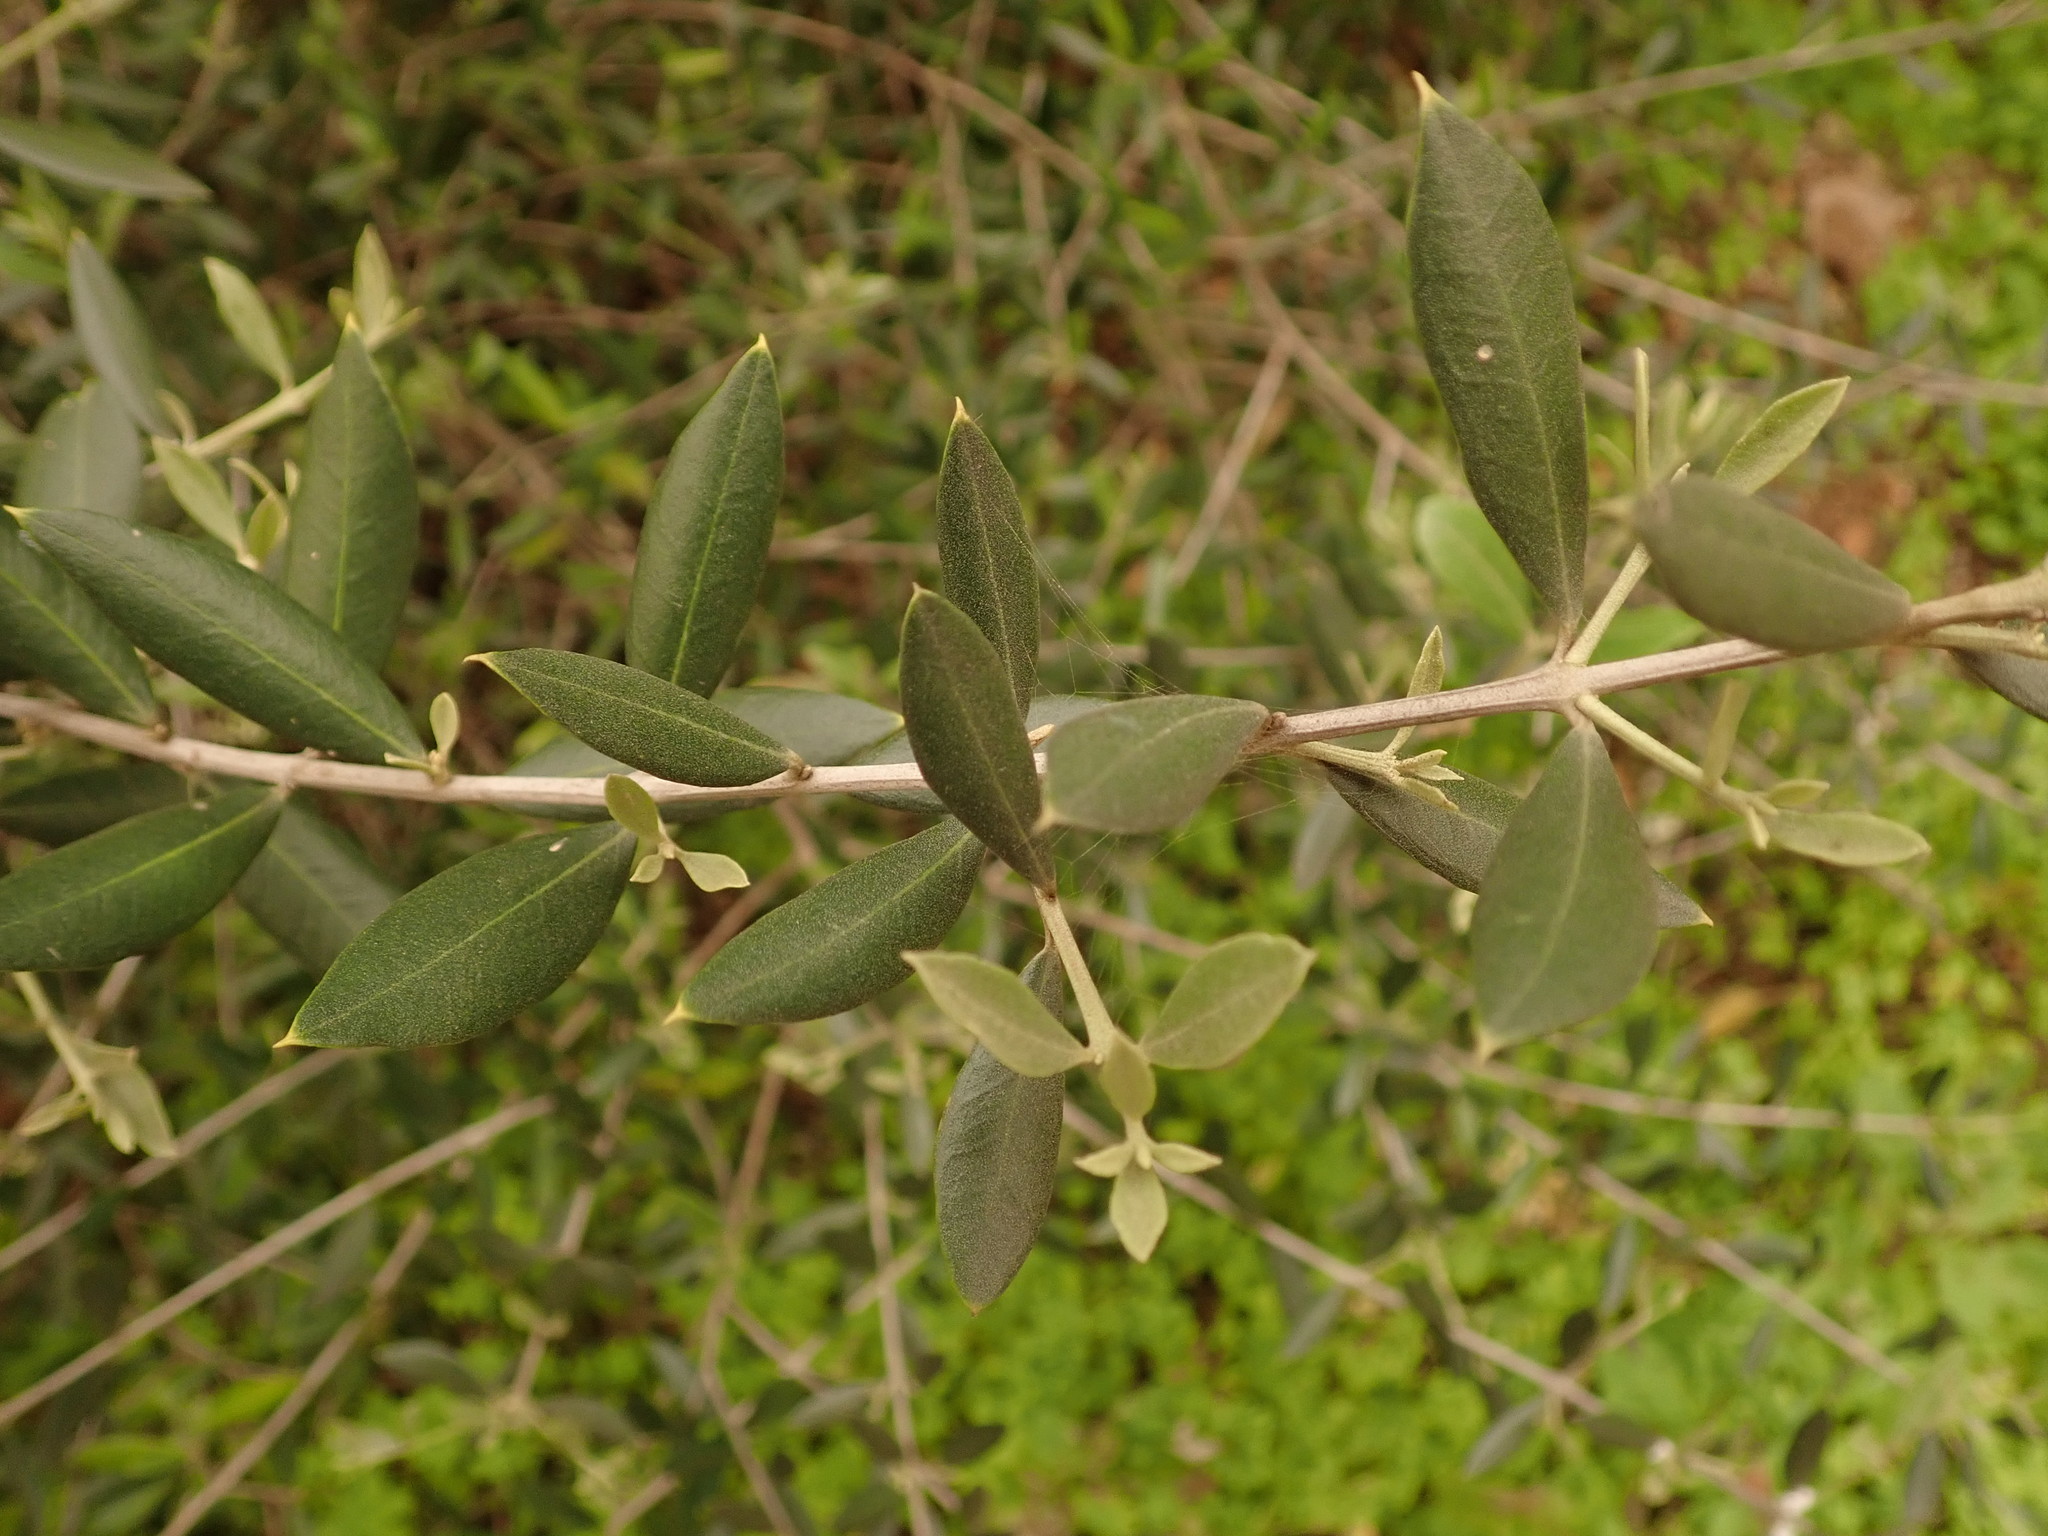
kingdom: Plantae
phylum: Tracheophyta
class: Magnoliopsida
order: Lamiales
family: Oleaceae
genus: Olea
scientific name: Olea europaea
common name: Olive
